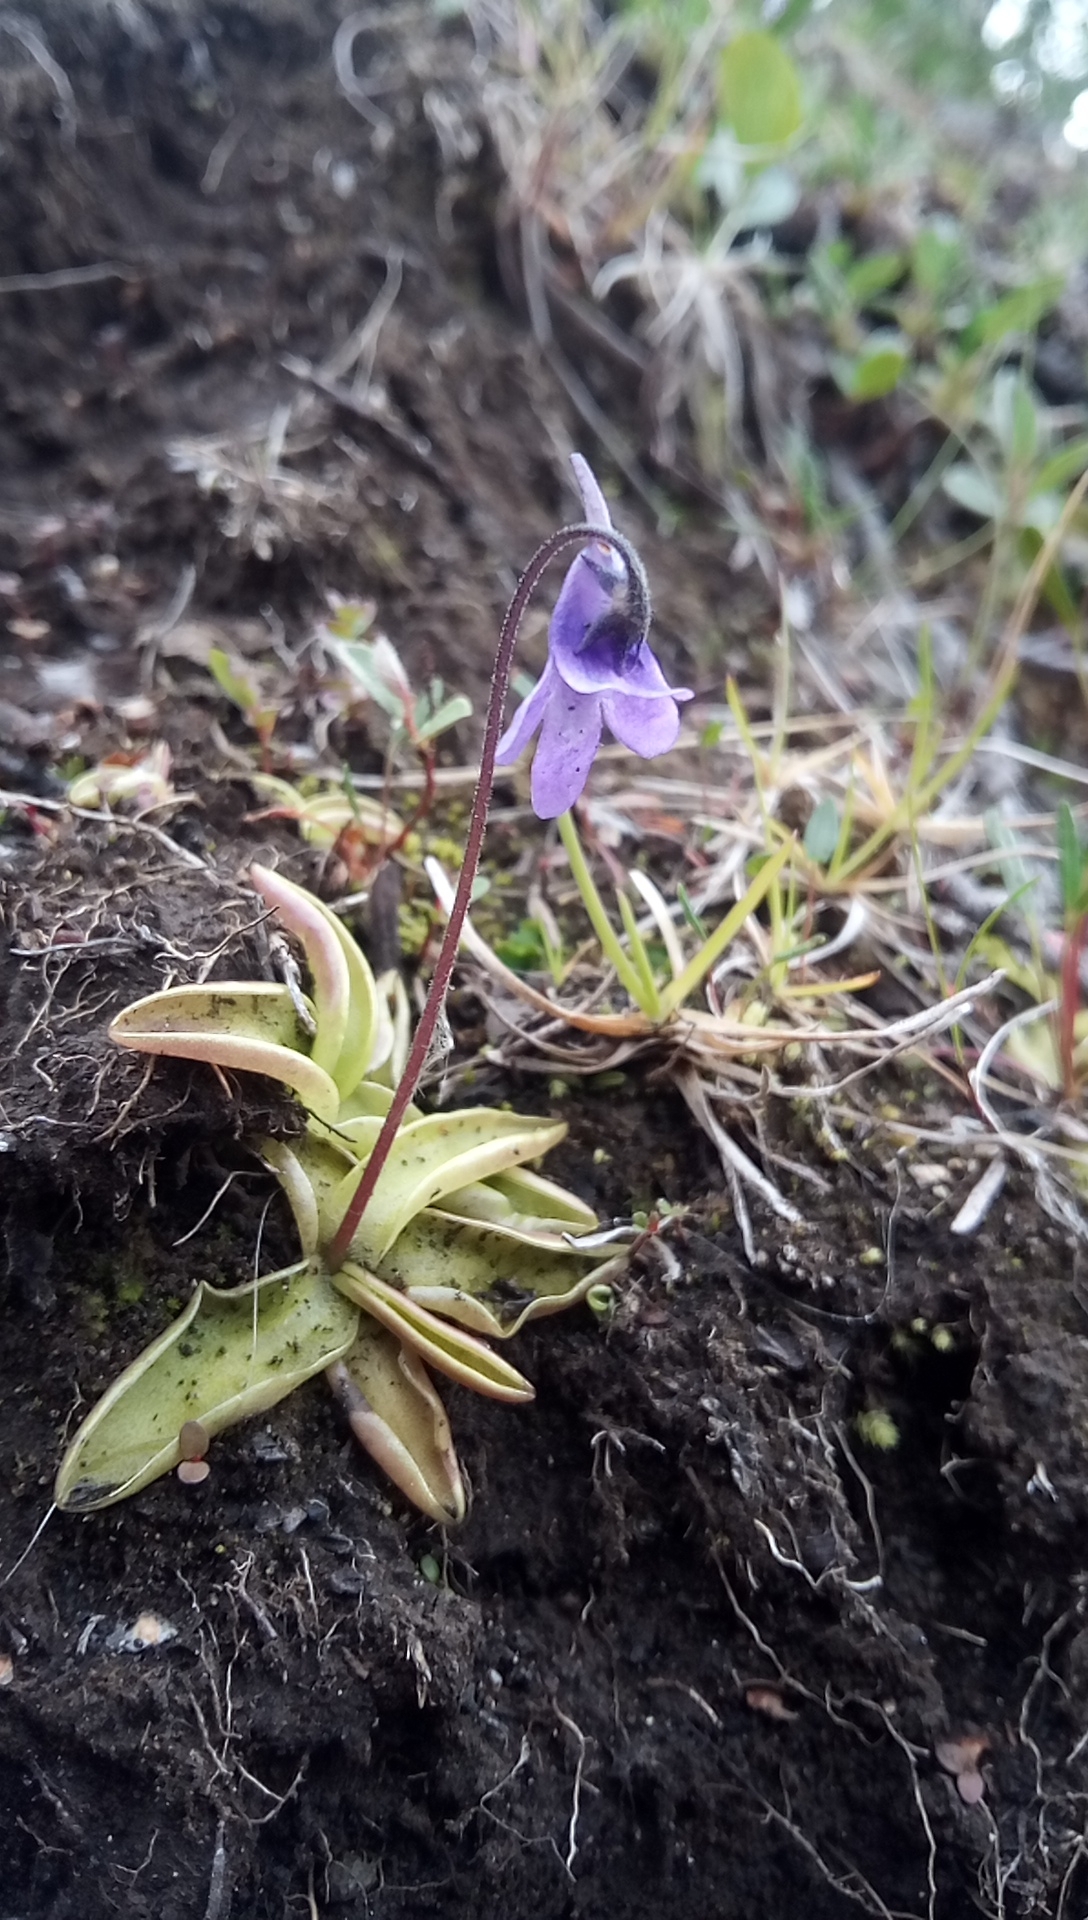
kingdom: Plantae
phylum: Tracheophyta
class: Magnoliopsida
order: Lamiales
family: Lentibulariaceae
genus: Pinguicula
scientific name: Pinguicula vulgaris
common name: Common butterwort
